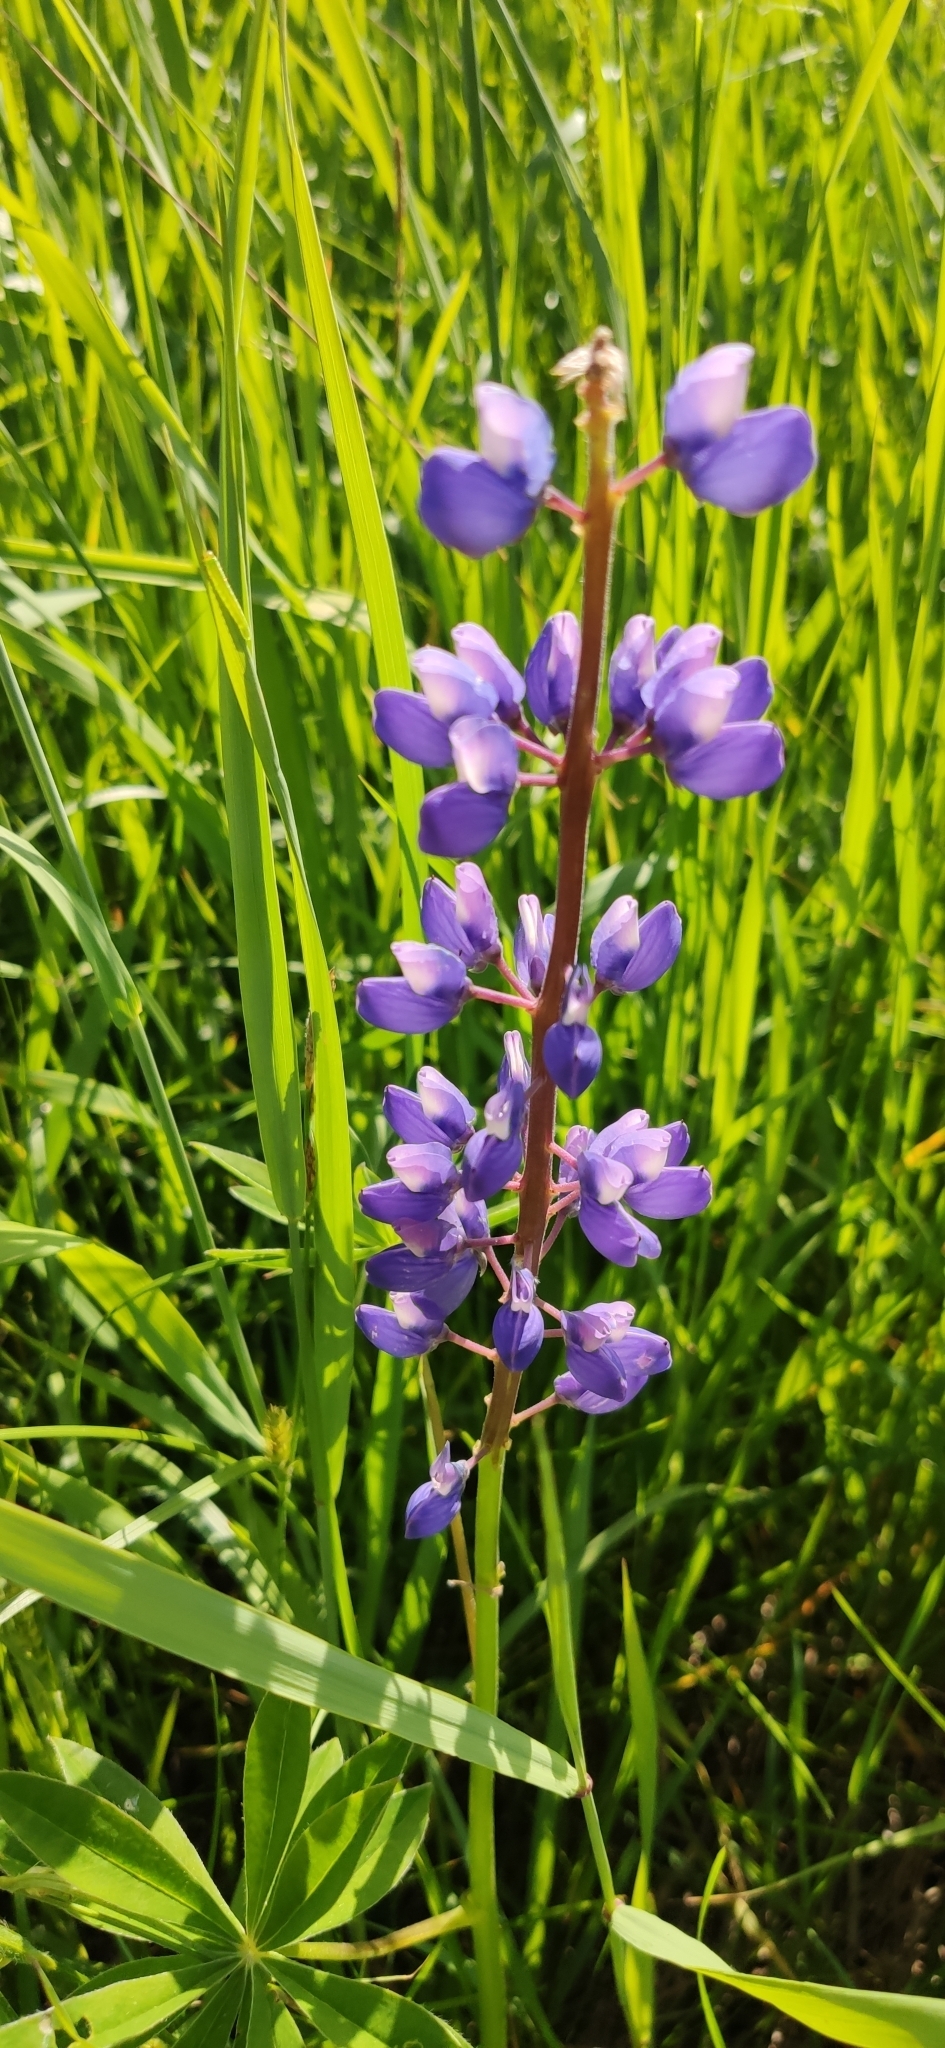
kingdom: Plantae
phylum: Tracheophyta
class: Magnoliopsida
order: Fabales
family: Fabaceae
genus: Lupinus
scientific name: Lupinus polyphyllus
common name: Garden lupin
